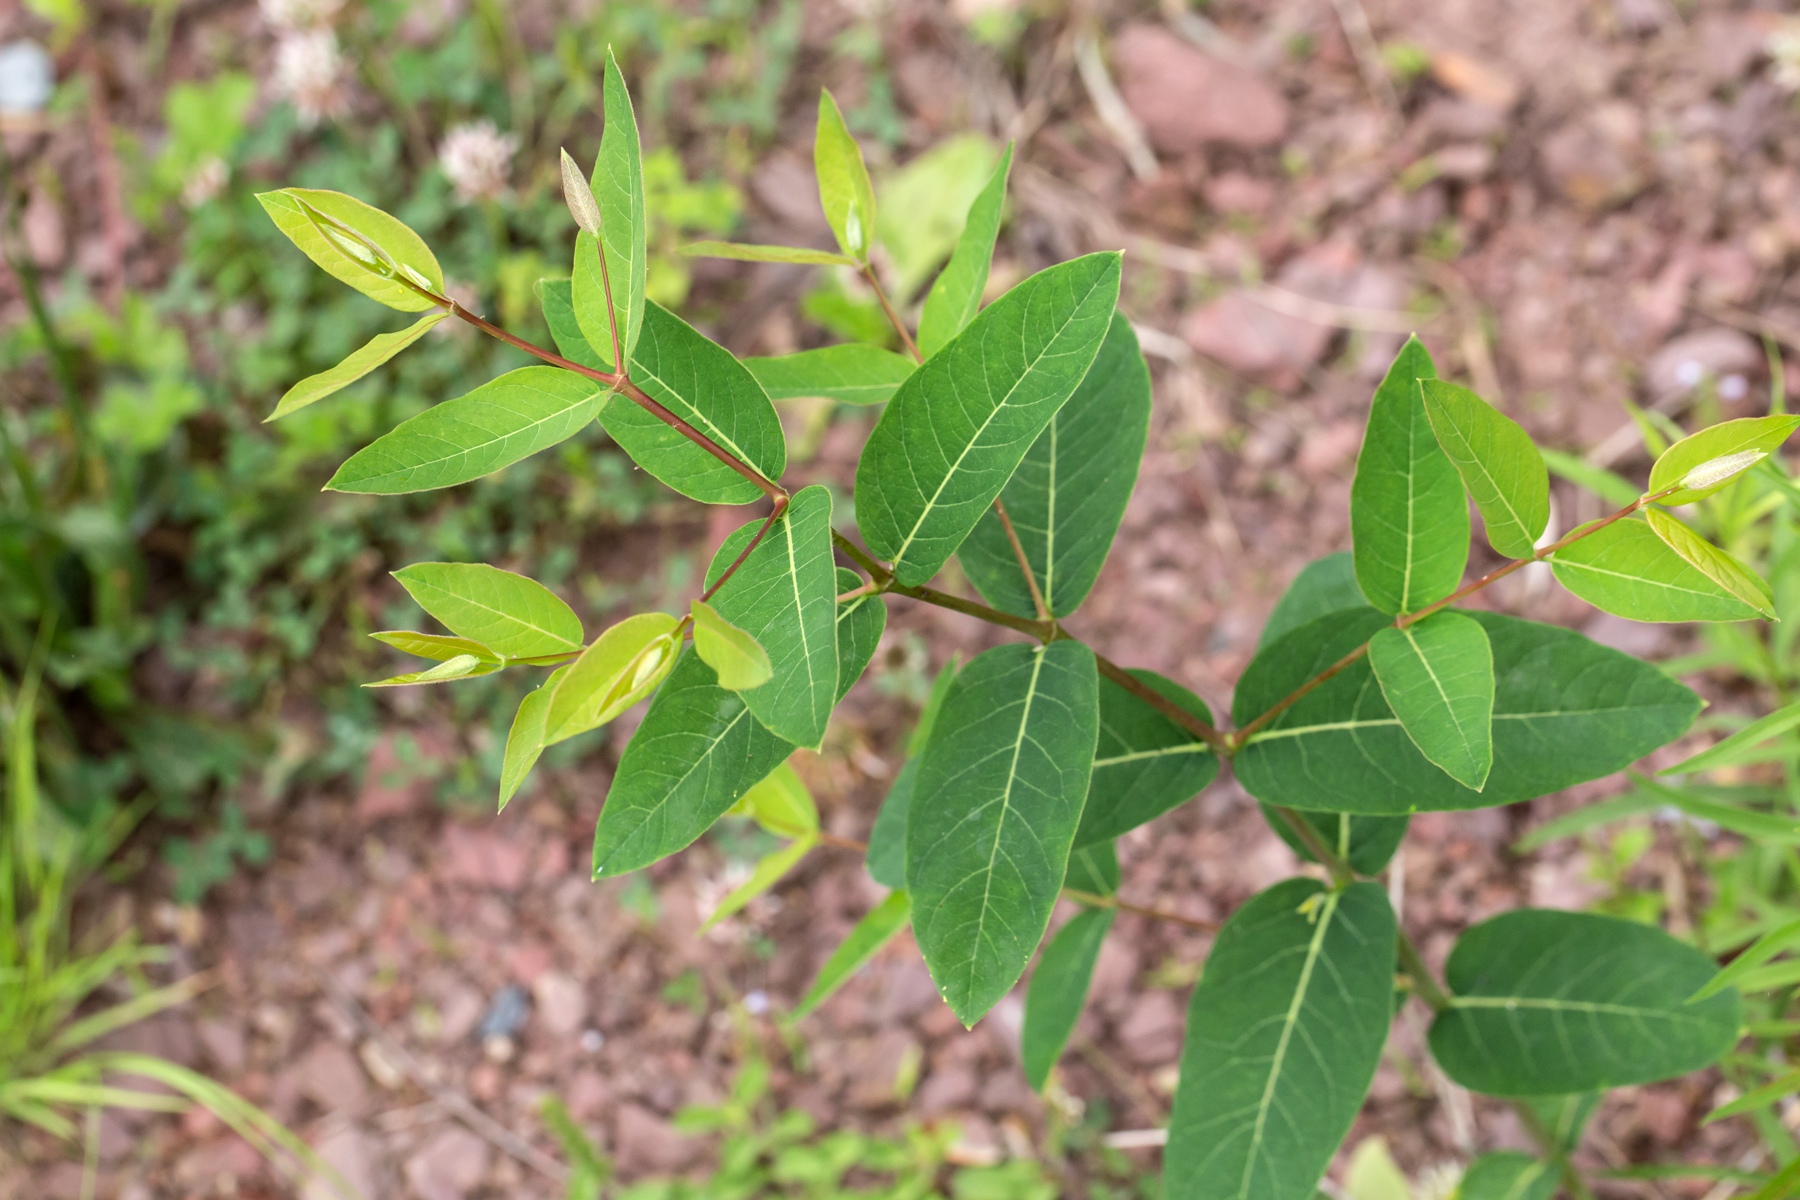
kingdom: Plantae
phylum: Tracheophyta
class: Magnoliopsida
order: Gentianales
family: Apocynaceae
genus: Apocynum
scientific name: Apocynum cannabinum
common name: Hemp dogbane
